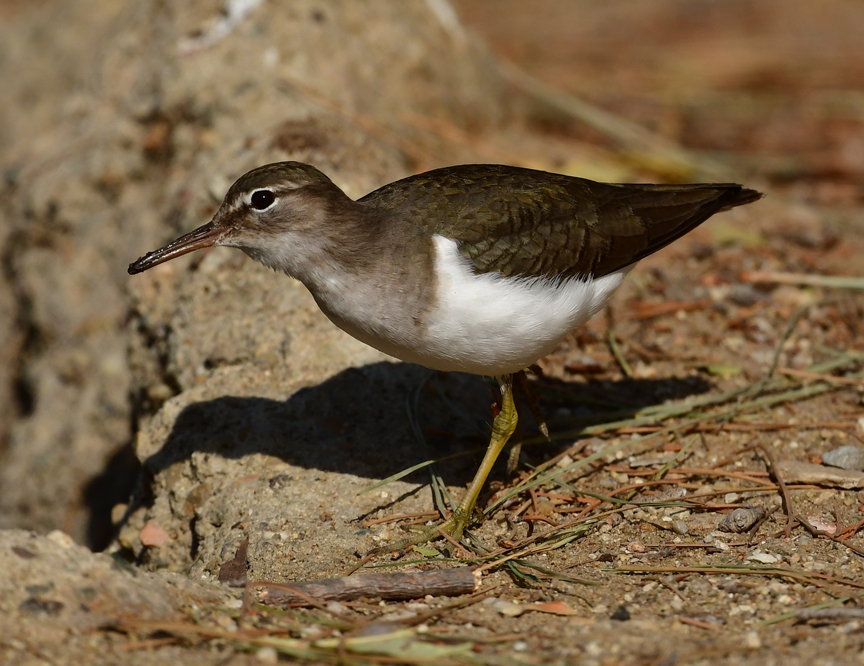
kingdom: Animalia
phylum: Chordata
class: Aves
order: Charadriiformes
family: Scolopacidae
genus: Actitis
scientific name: Actitis macularius
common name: Spotted sandpiper
